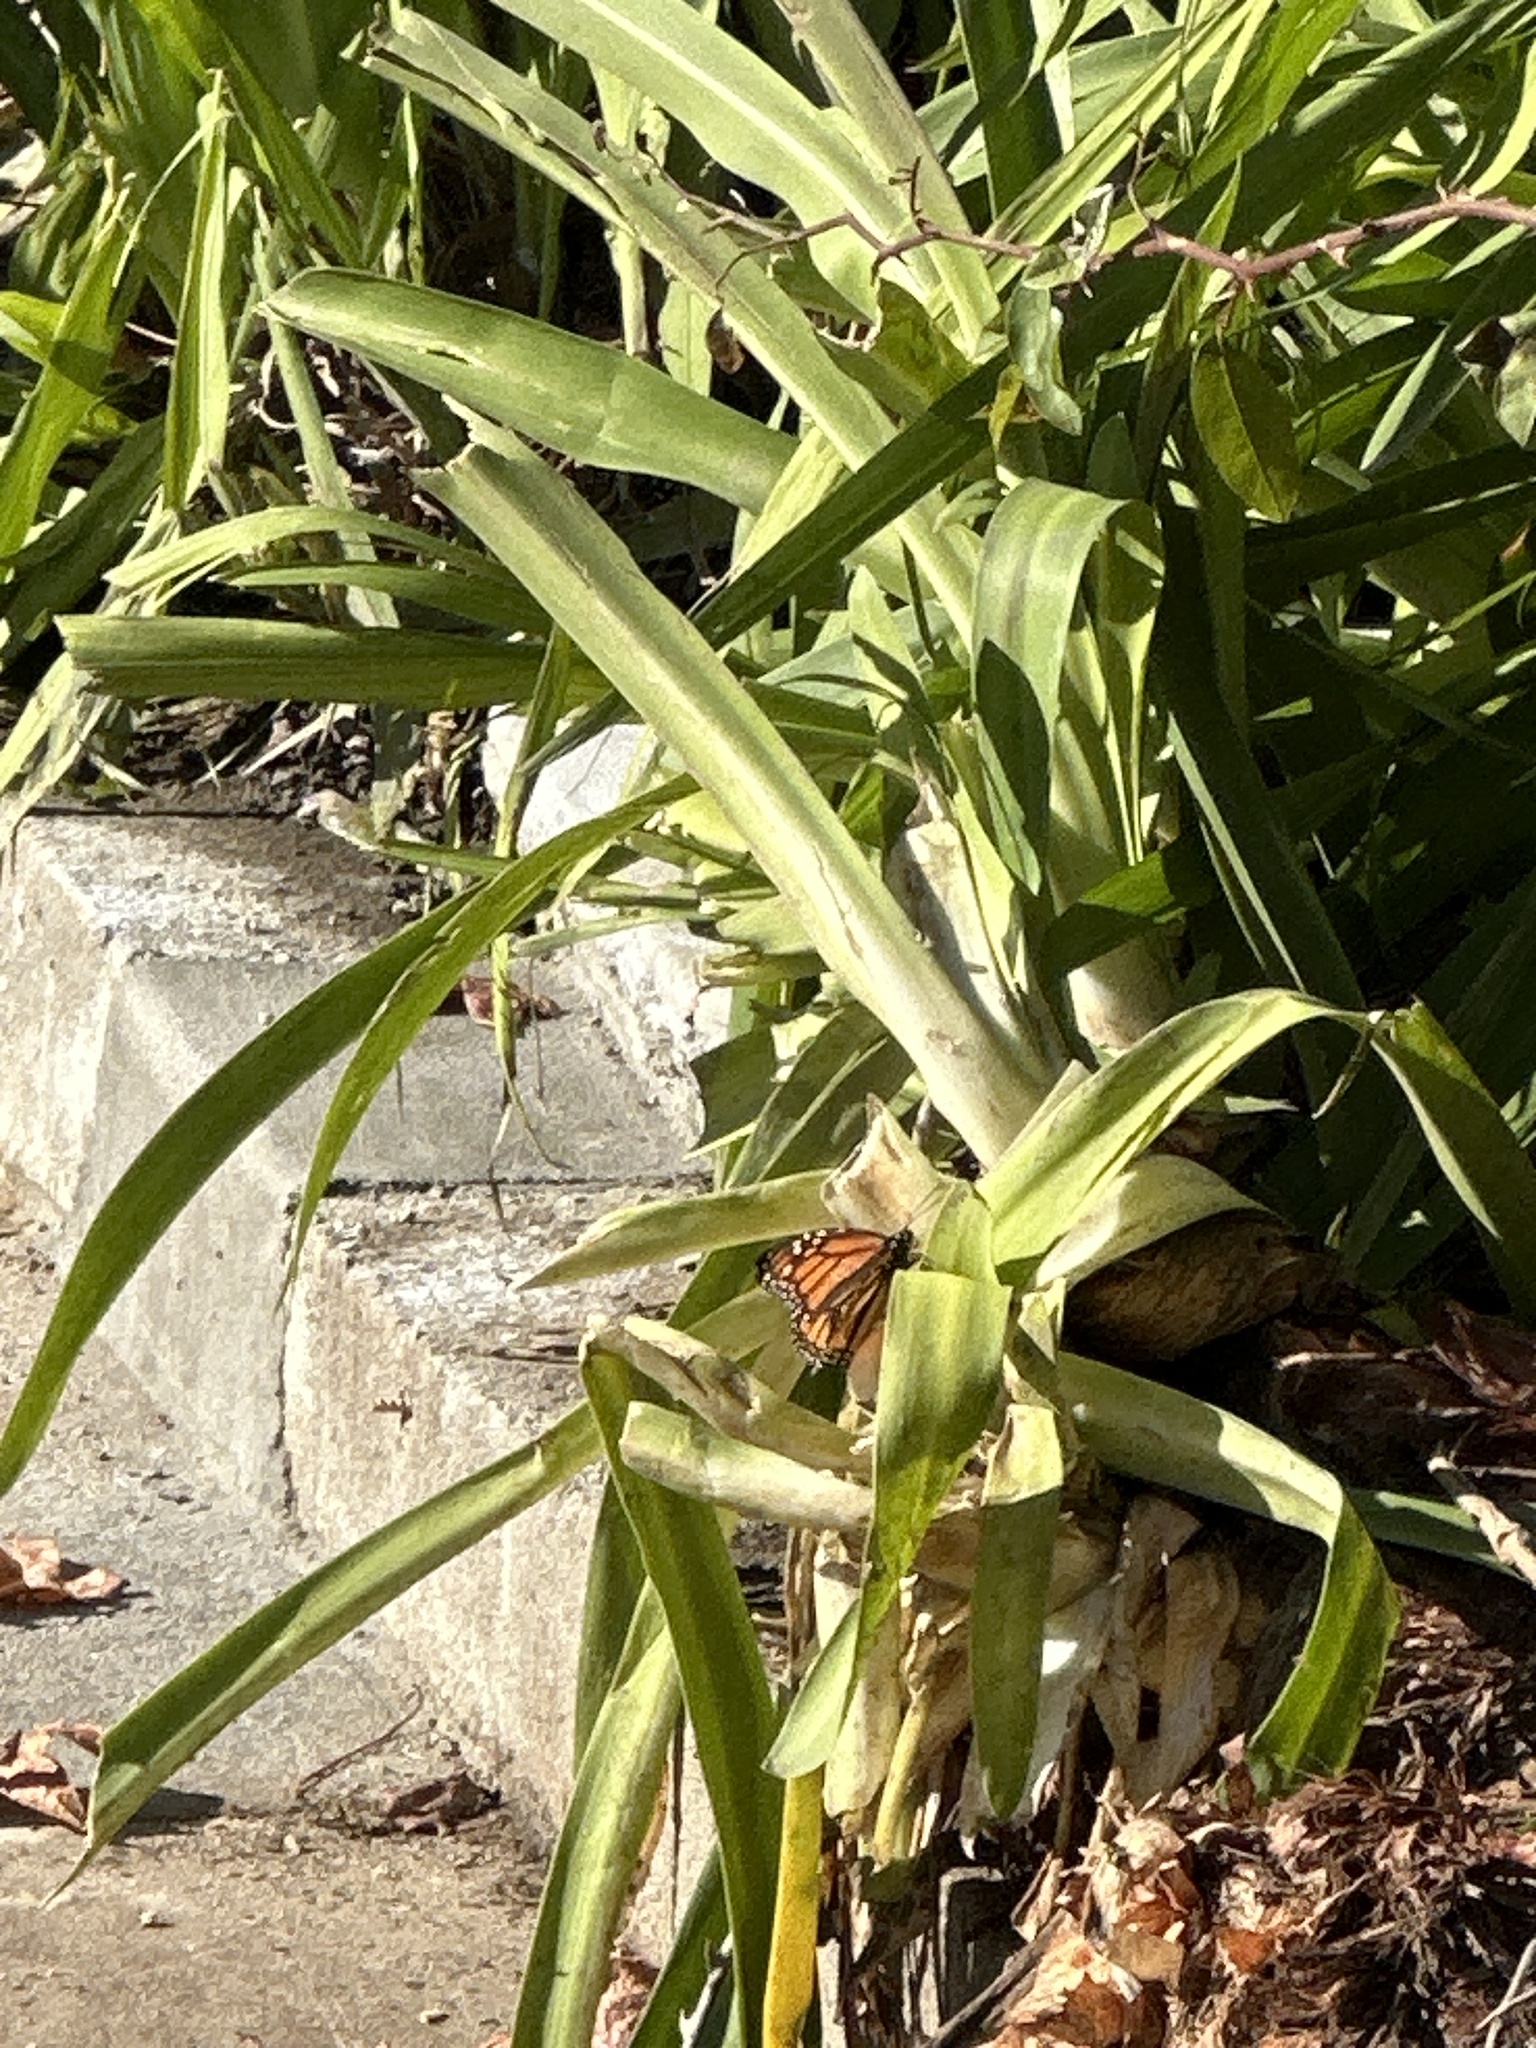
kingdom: Animalia
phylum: Arthropoda
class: Insecta
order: Lepidoptera
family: Nymphalidae
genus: Danaus
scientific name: Danaus plexippus
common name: Monarch
